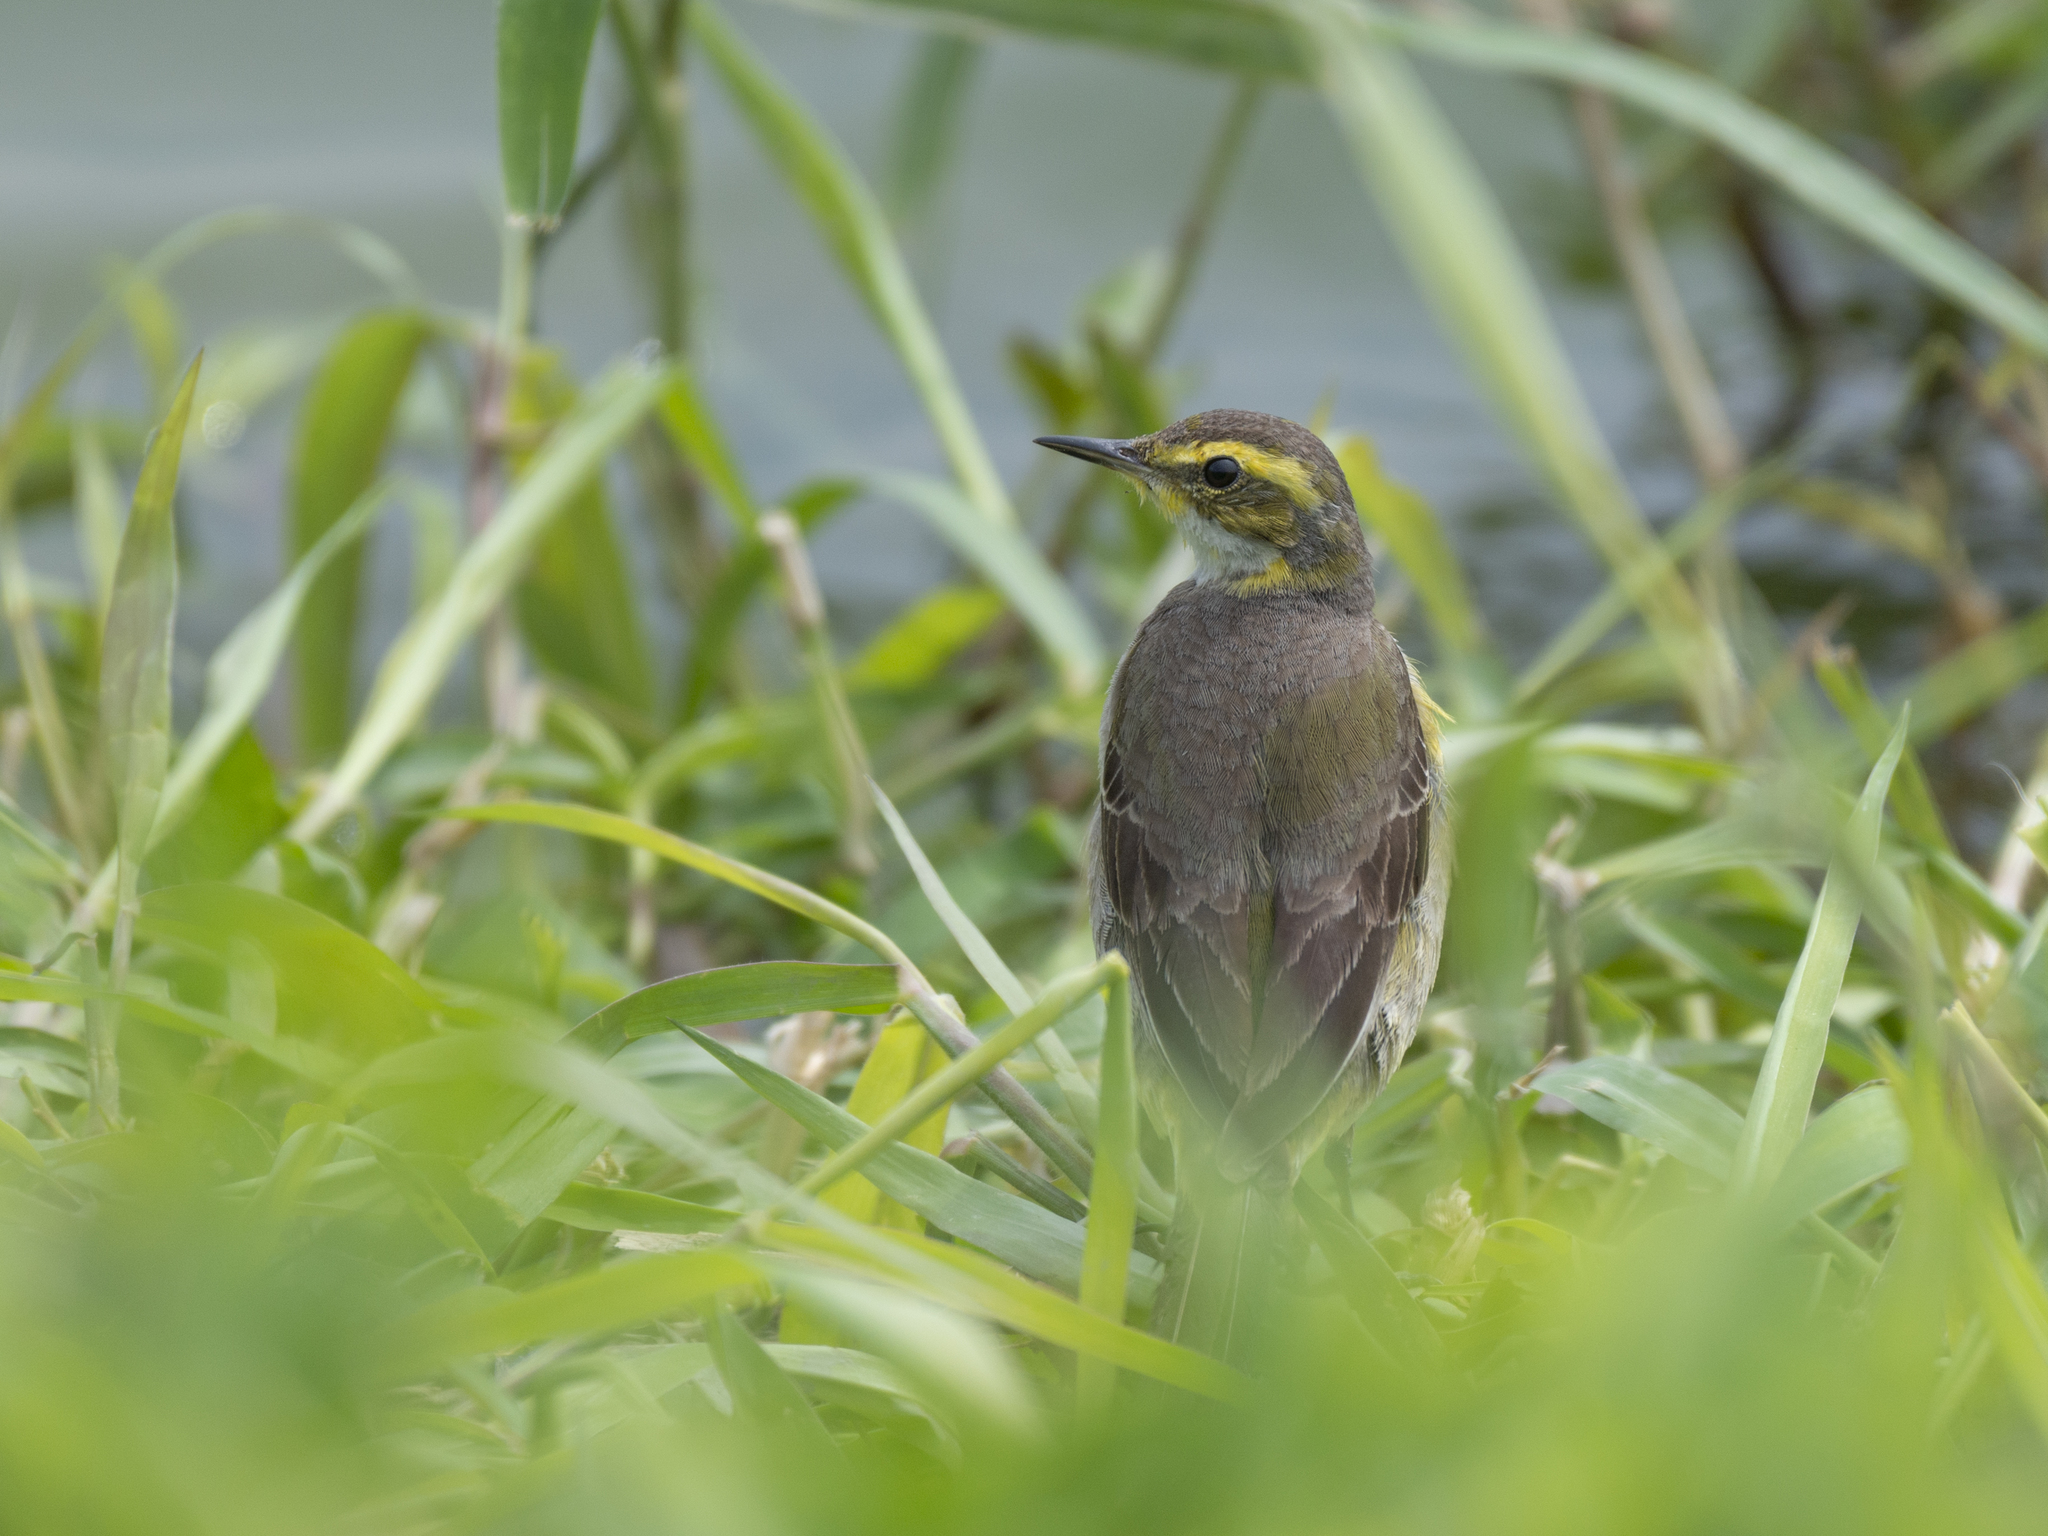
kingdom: Animalia
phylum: Chordata
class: Aves
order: Passeriformes
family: Motacillidae
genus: Motacilla
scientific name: Motacilla tschutschensis
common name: Eastern yellow wagtail
